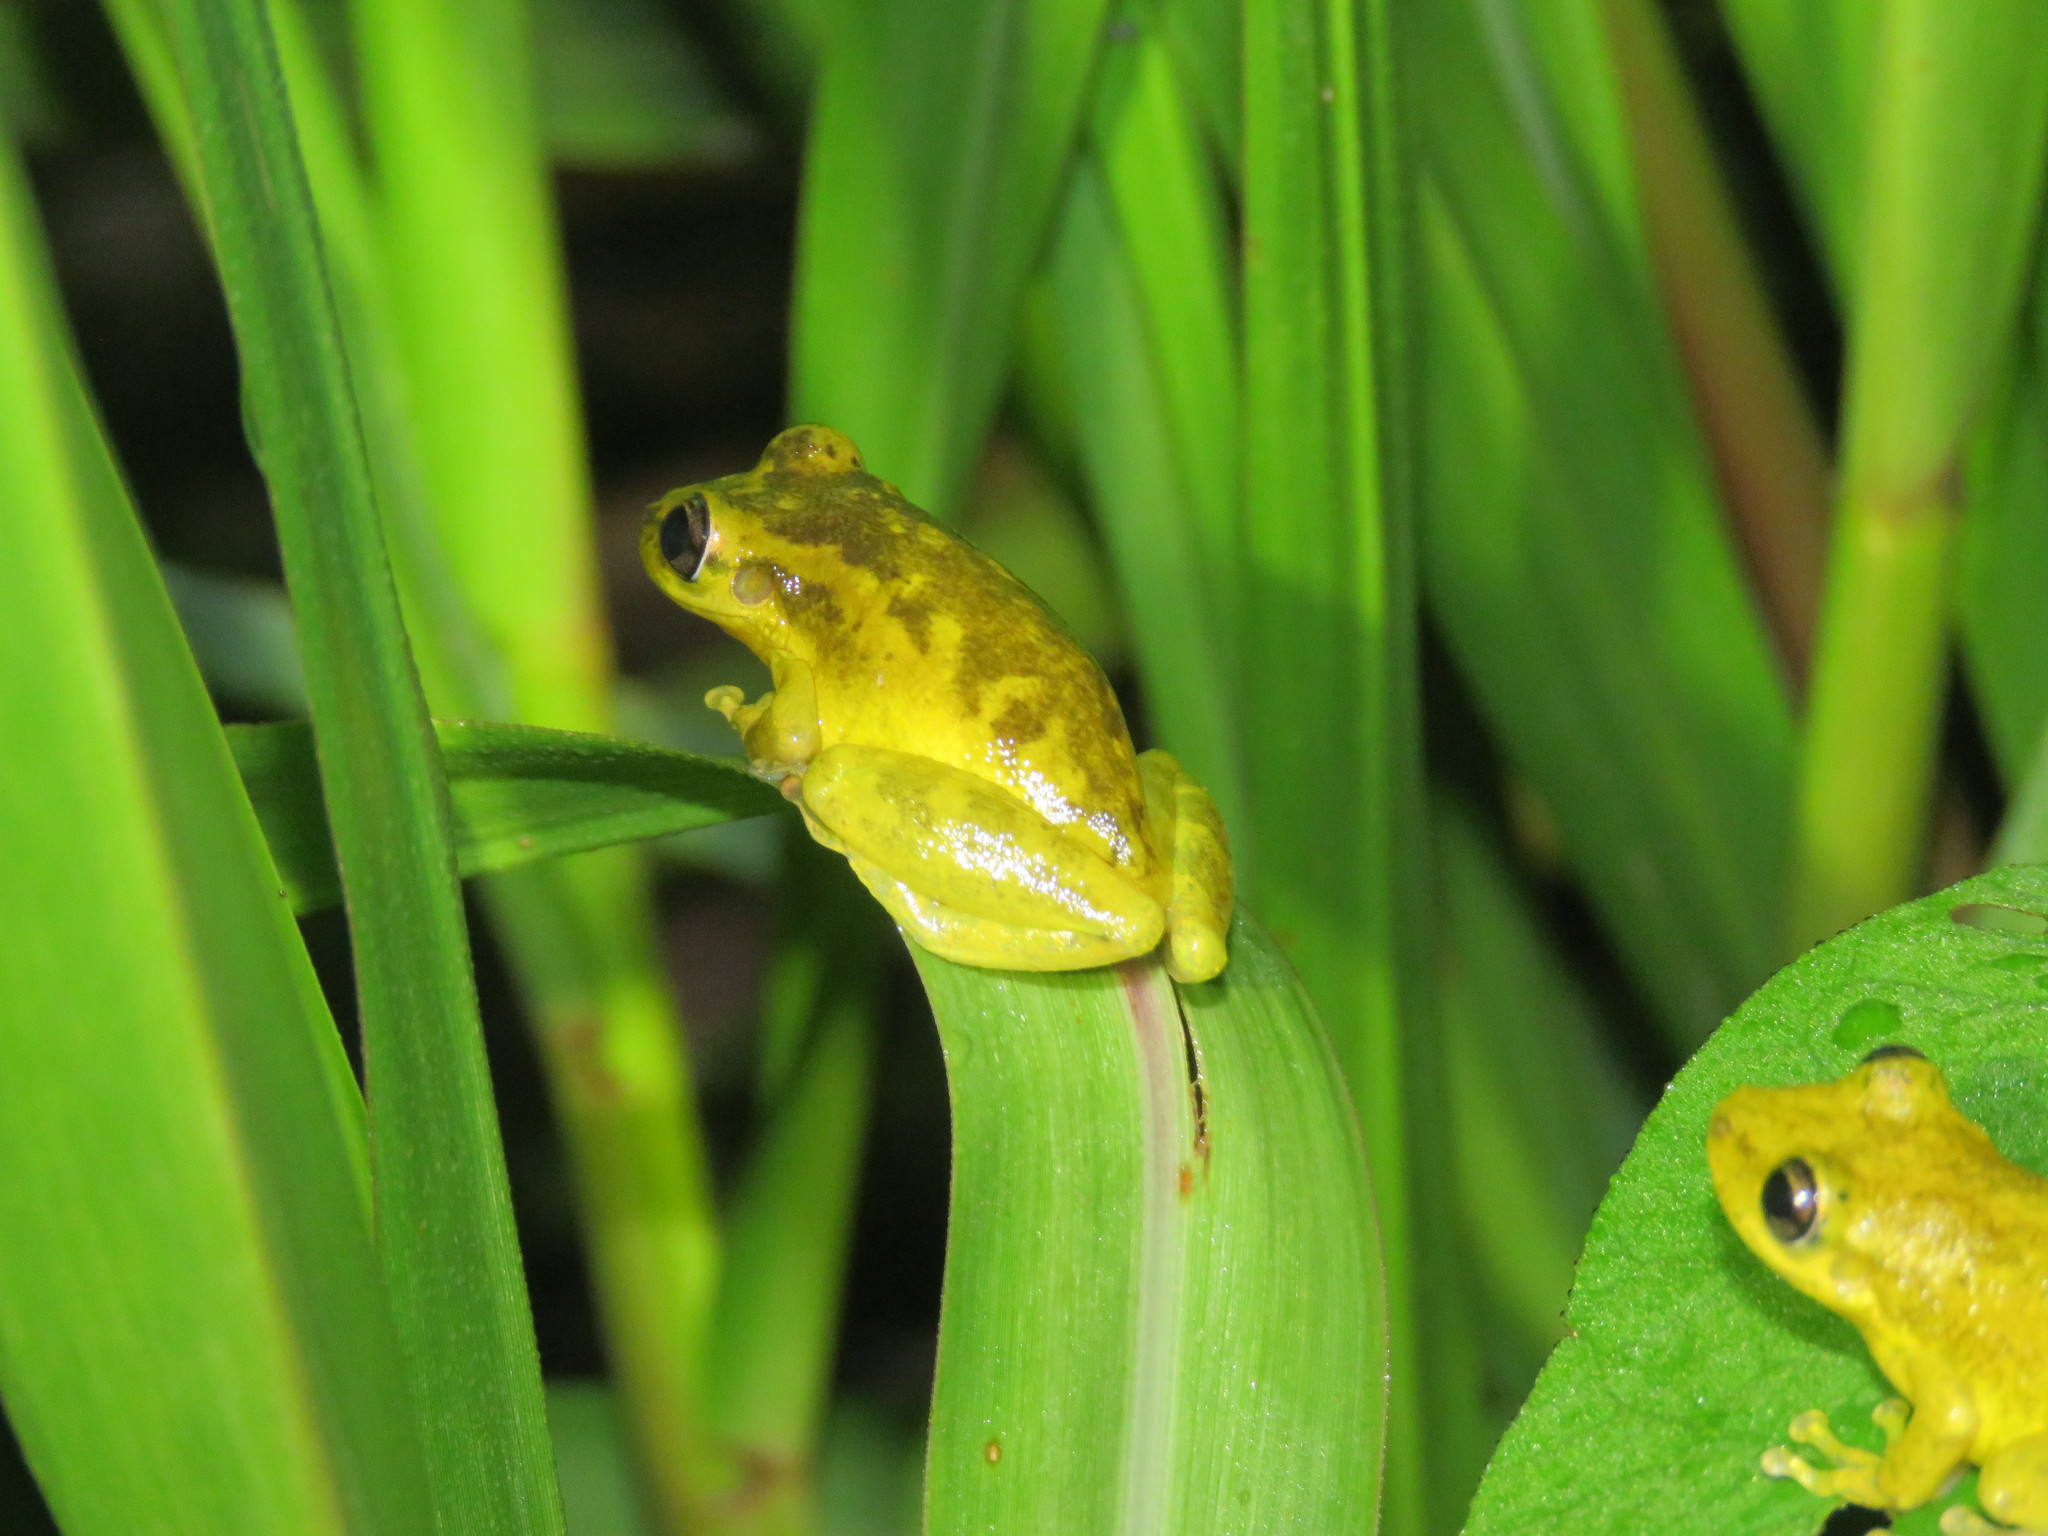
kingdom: Animalia
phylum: Chordata
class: Amphibia
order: Anura
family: Hylidae
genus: Scinax
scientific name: Scinax ruber
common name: Red snouted treefrog
